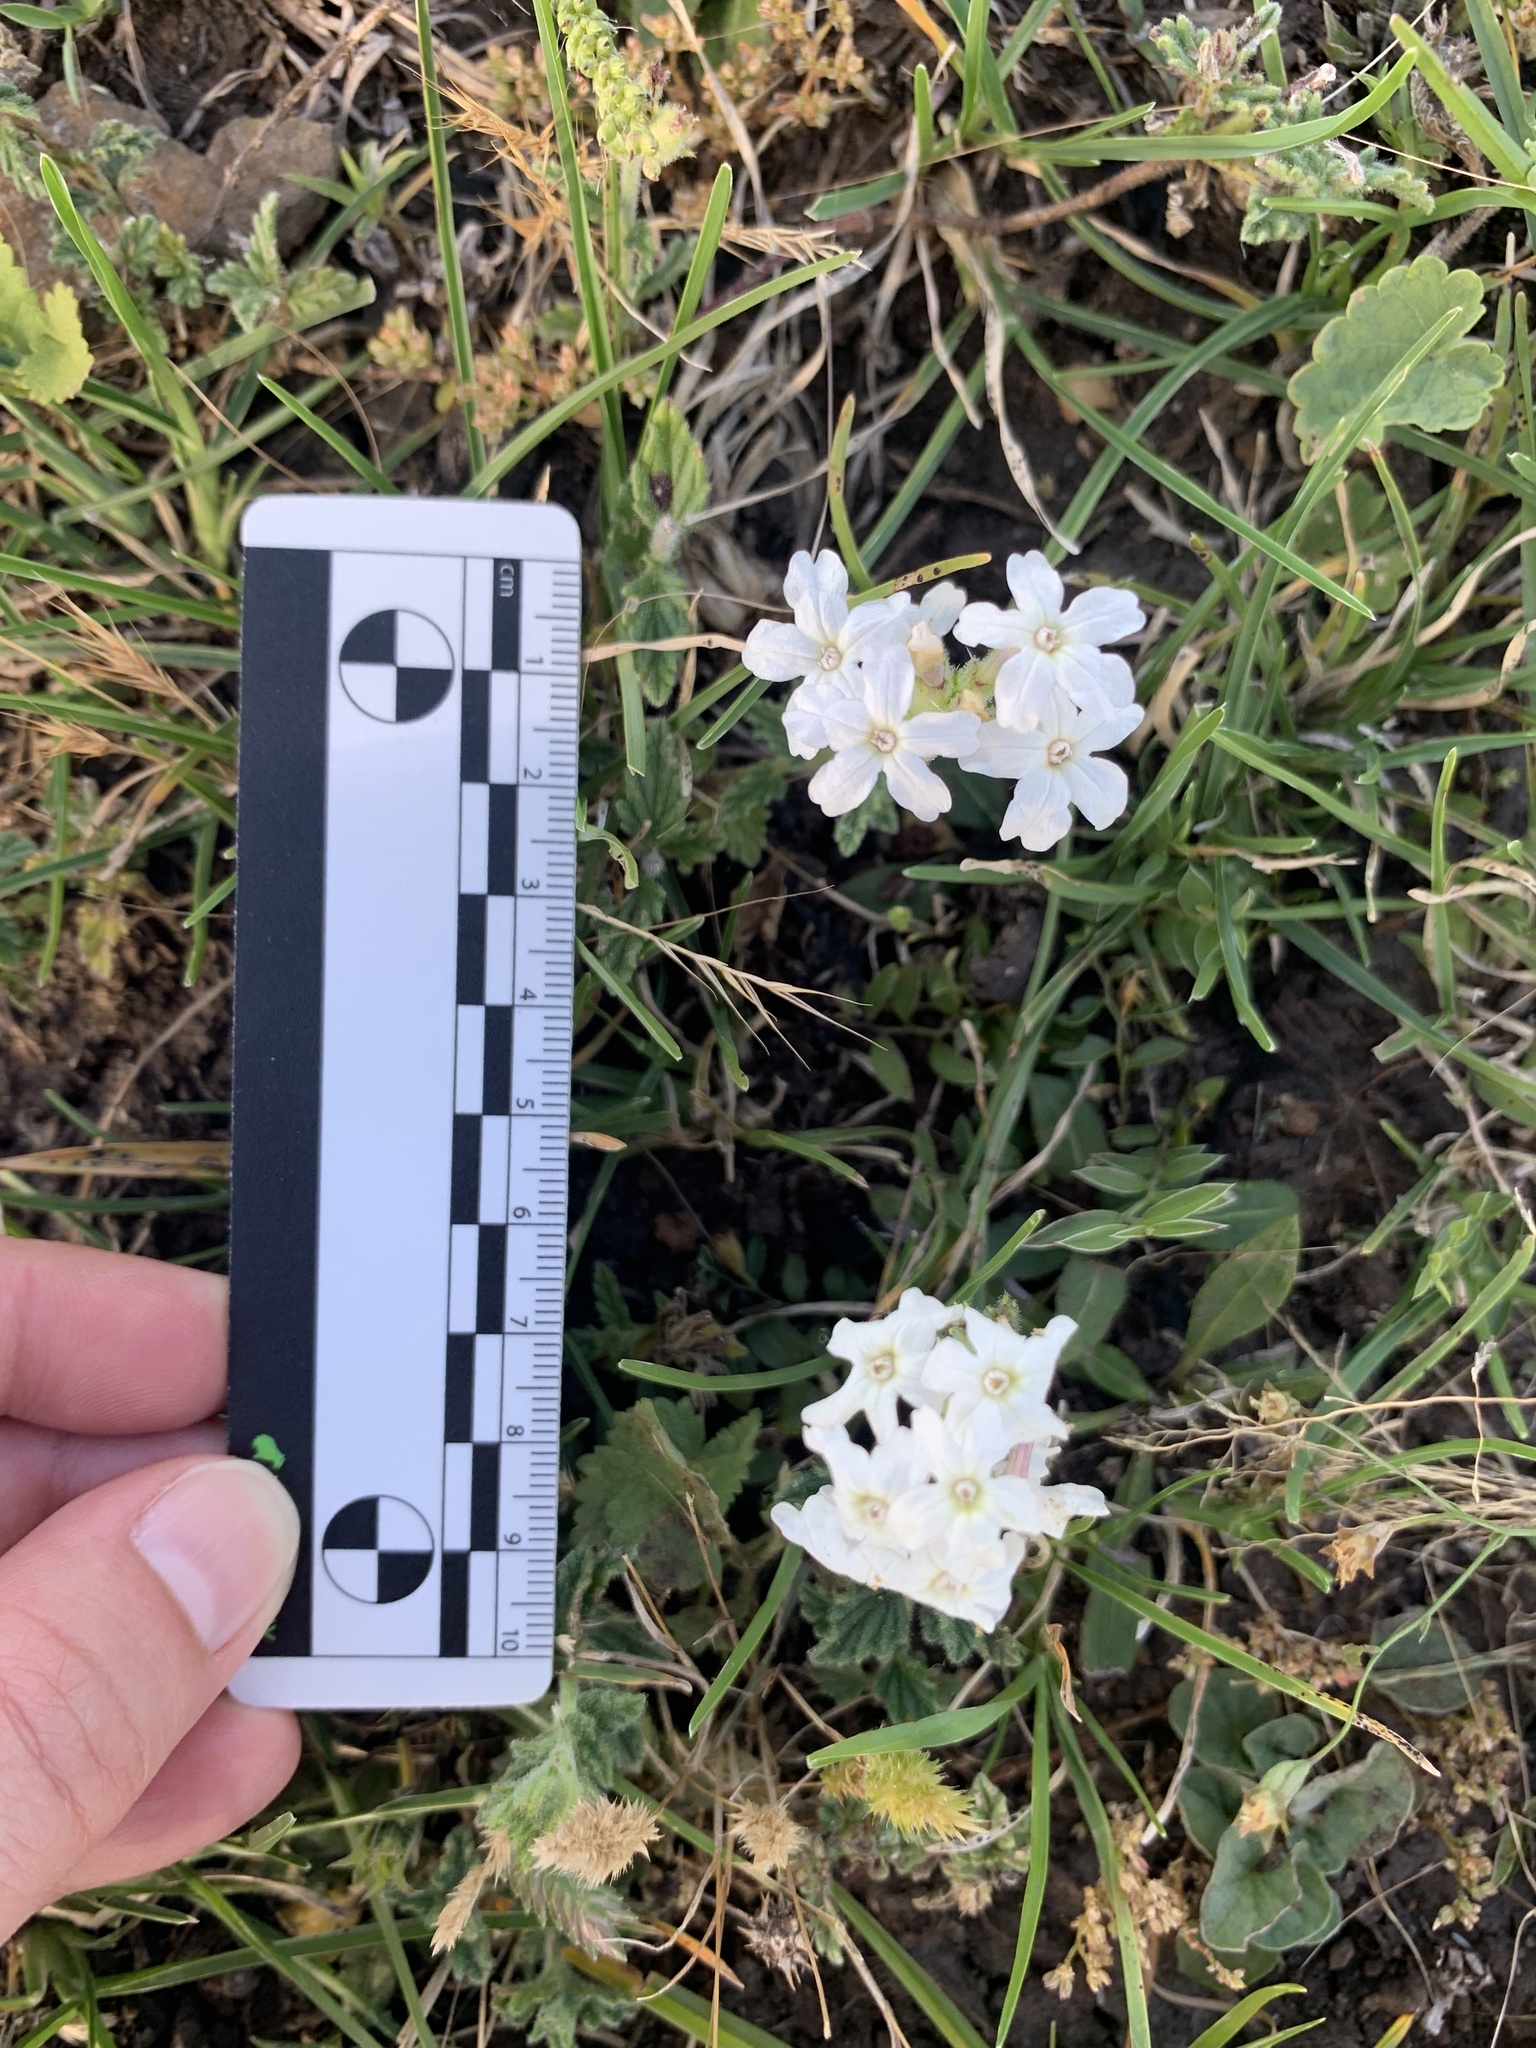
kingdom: Plantae
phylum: Tracheophyta
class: Magnoliopsida
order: Lamiales
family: Verbenaceae
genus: Verbena
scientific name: Verbena platensis
